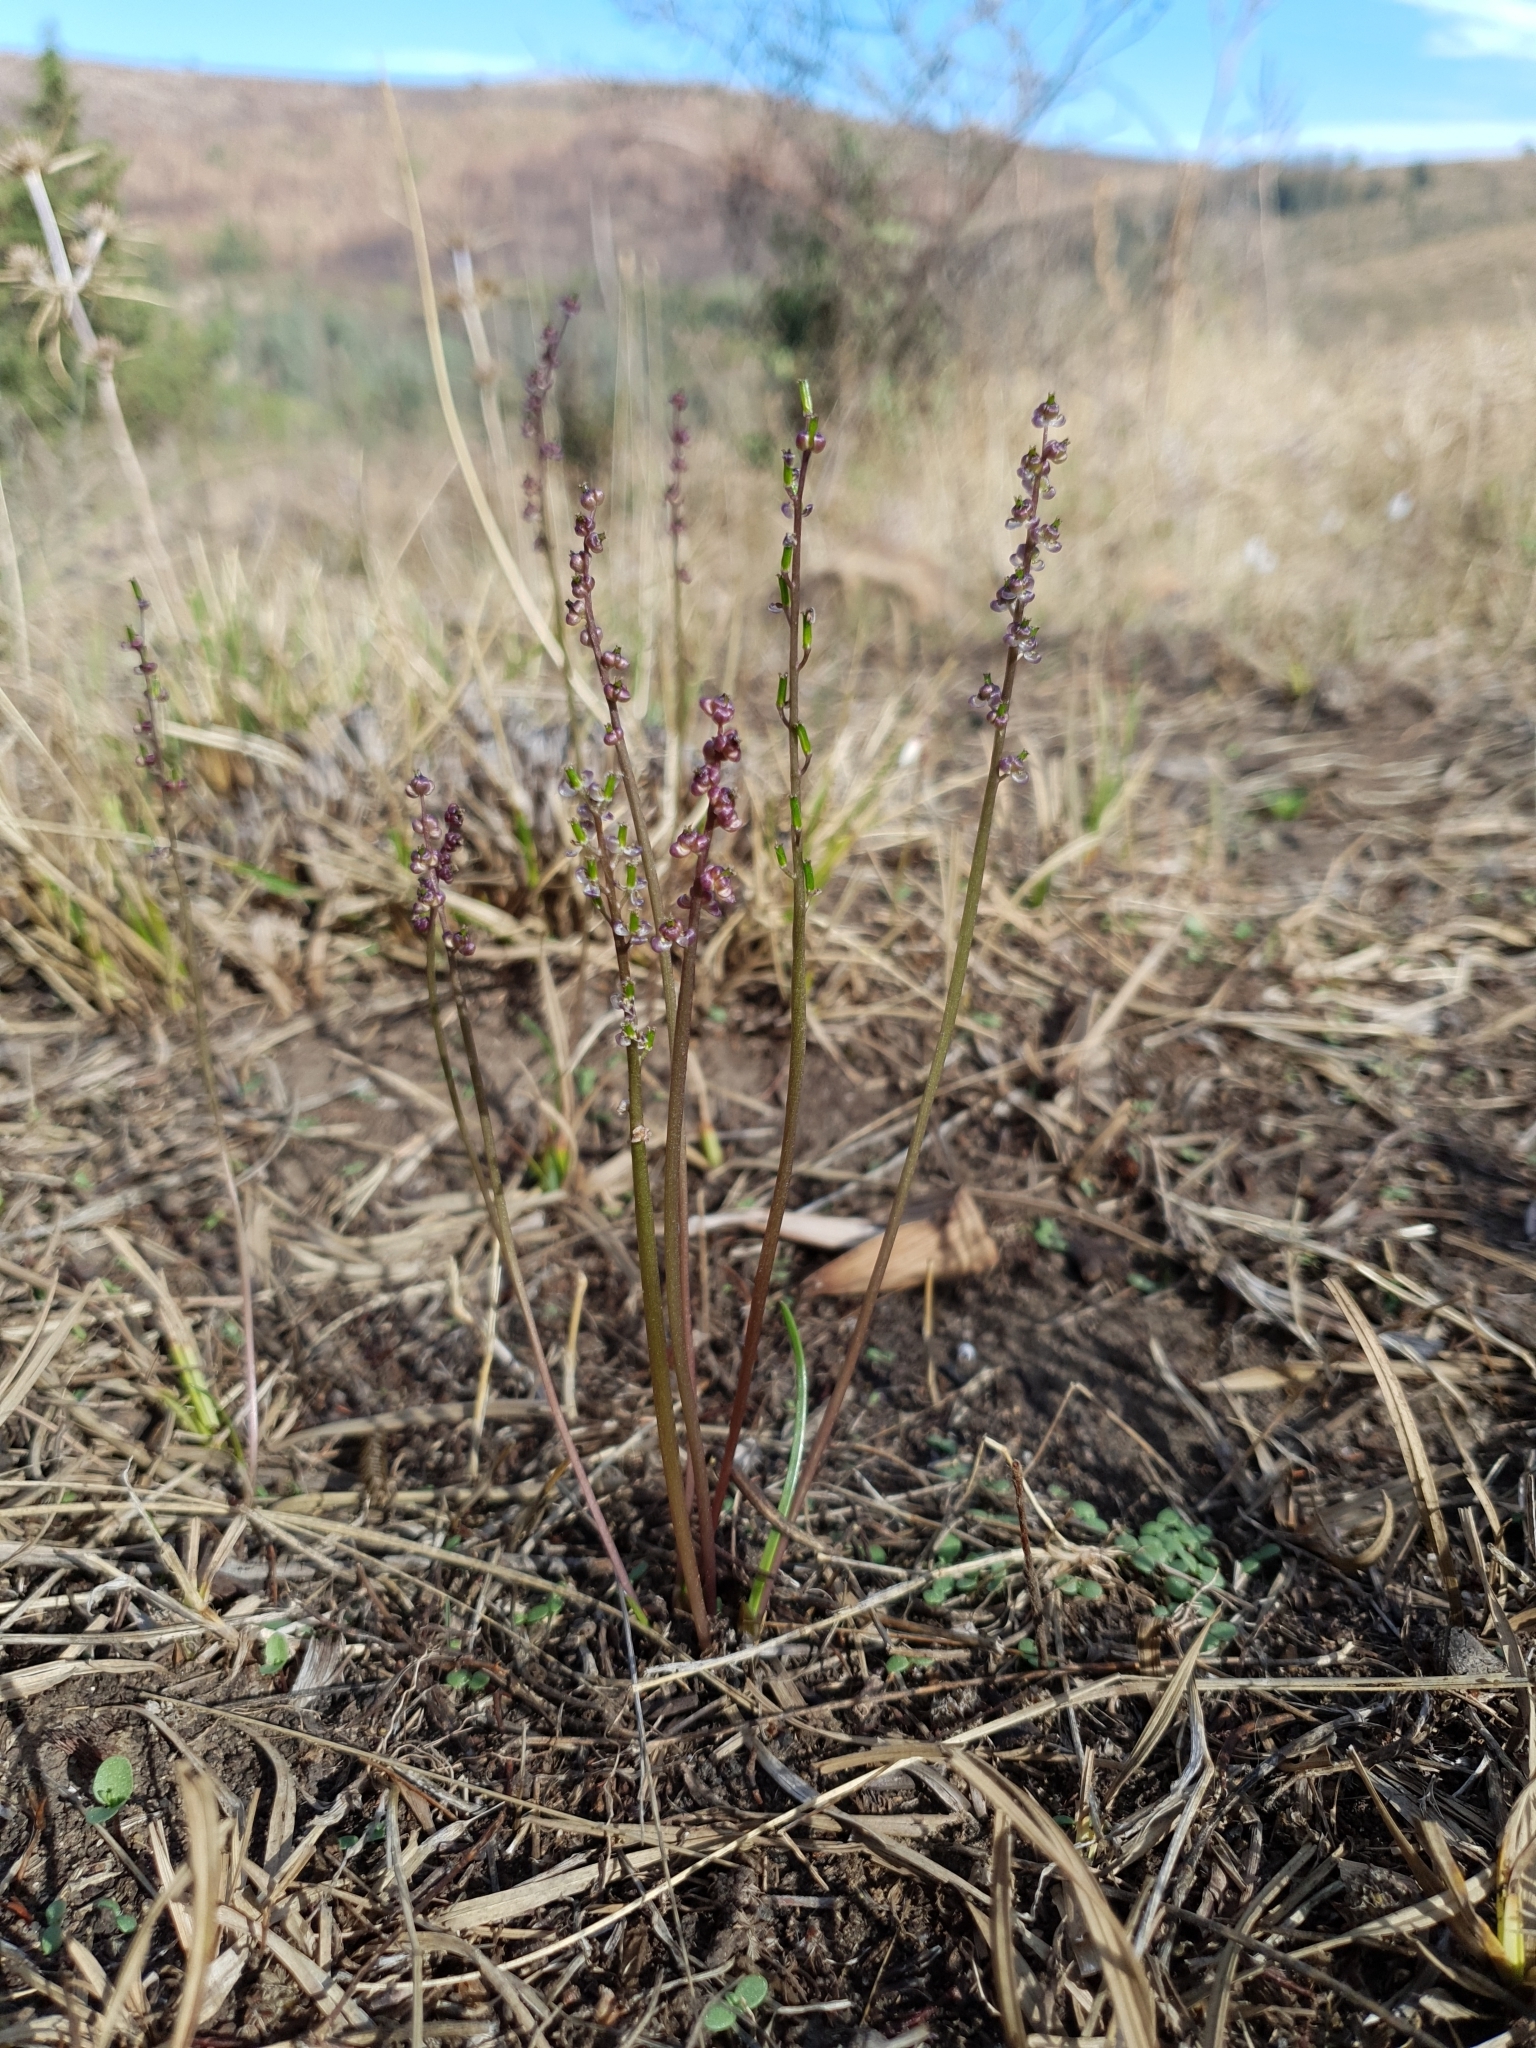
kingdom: Plantae
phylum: Tracheophyta
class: Liliopsida
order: Alismatales
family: Juncaginaceae
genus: Triglochin
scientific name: Triglochin laxiflora
